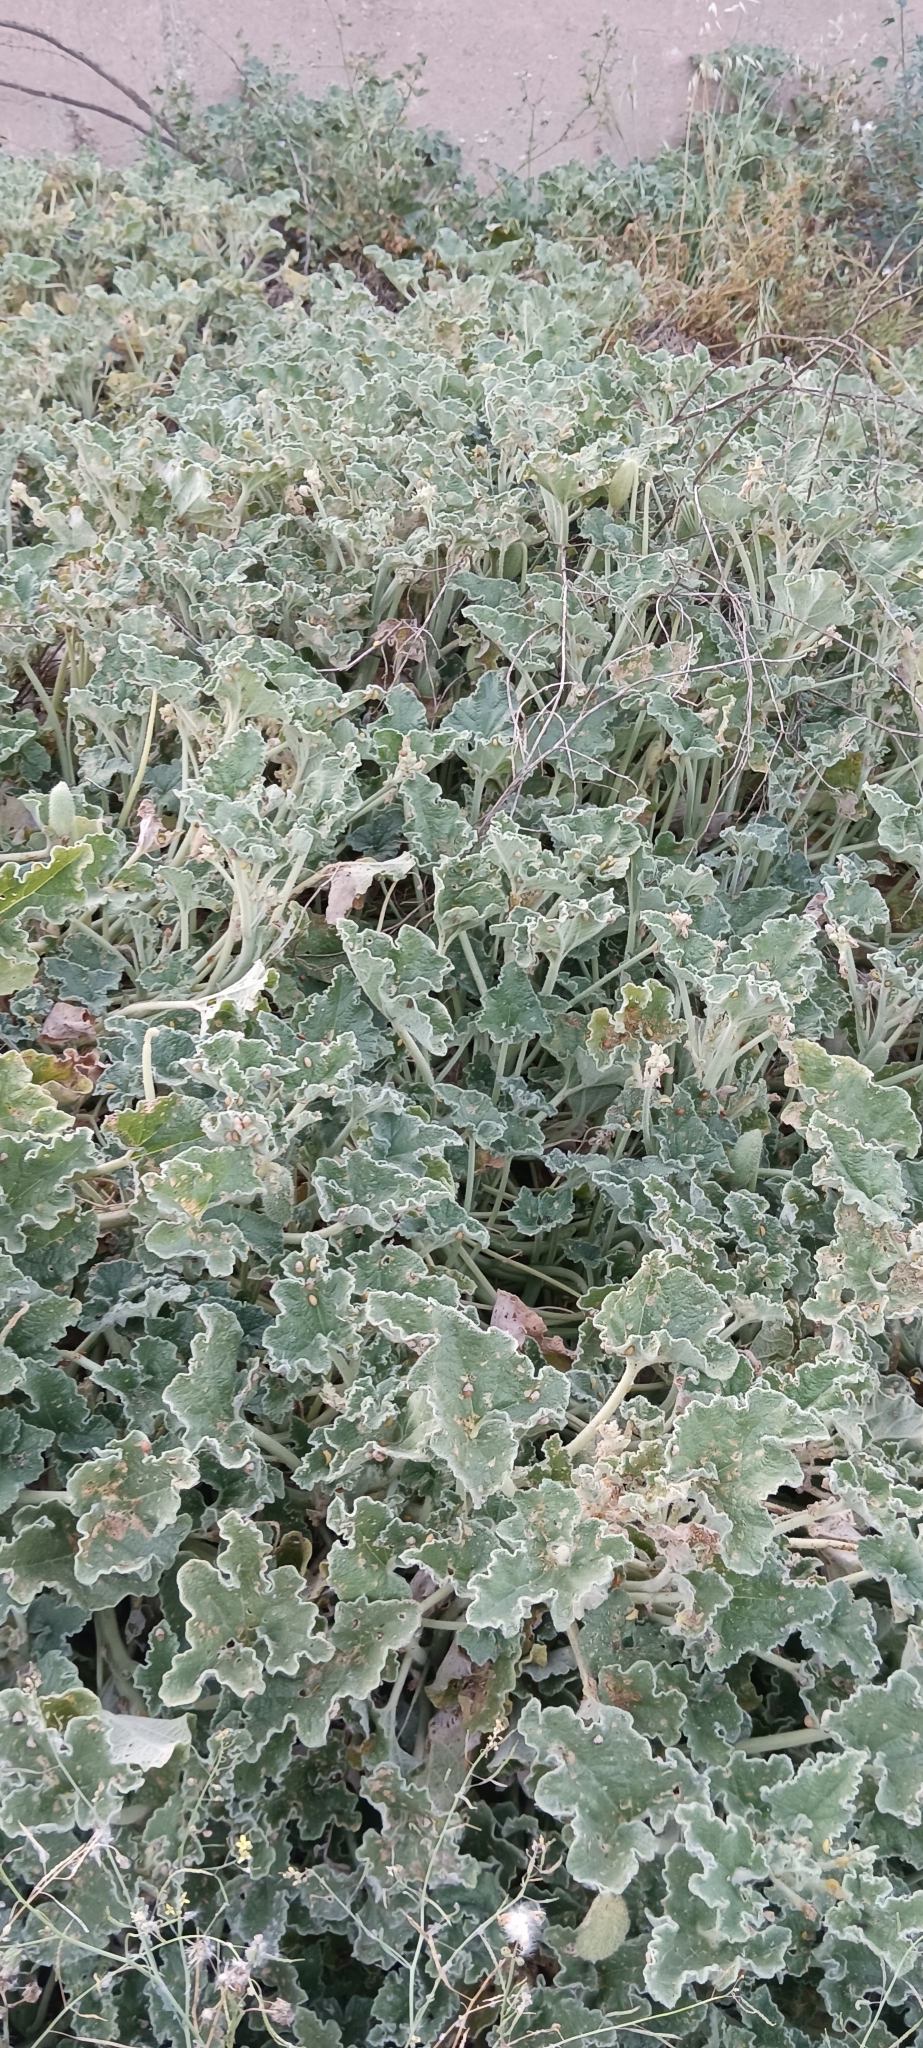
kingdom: Plantae
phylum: Tracheophyta
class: Magnoliopsida
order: Cucurbitales
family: Cucurbitaceae
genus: Ecballium
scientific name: Ecballium elaterium
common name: Squirting cucumber
